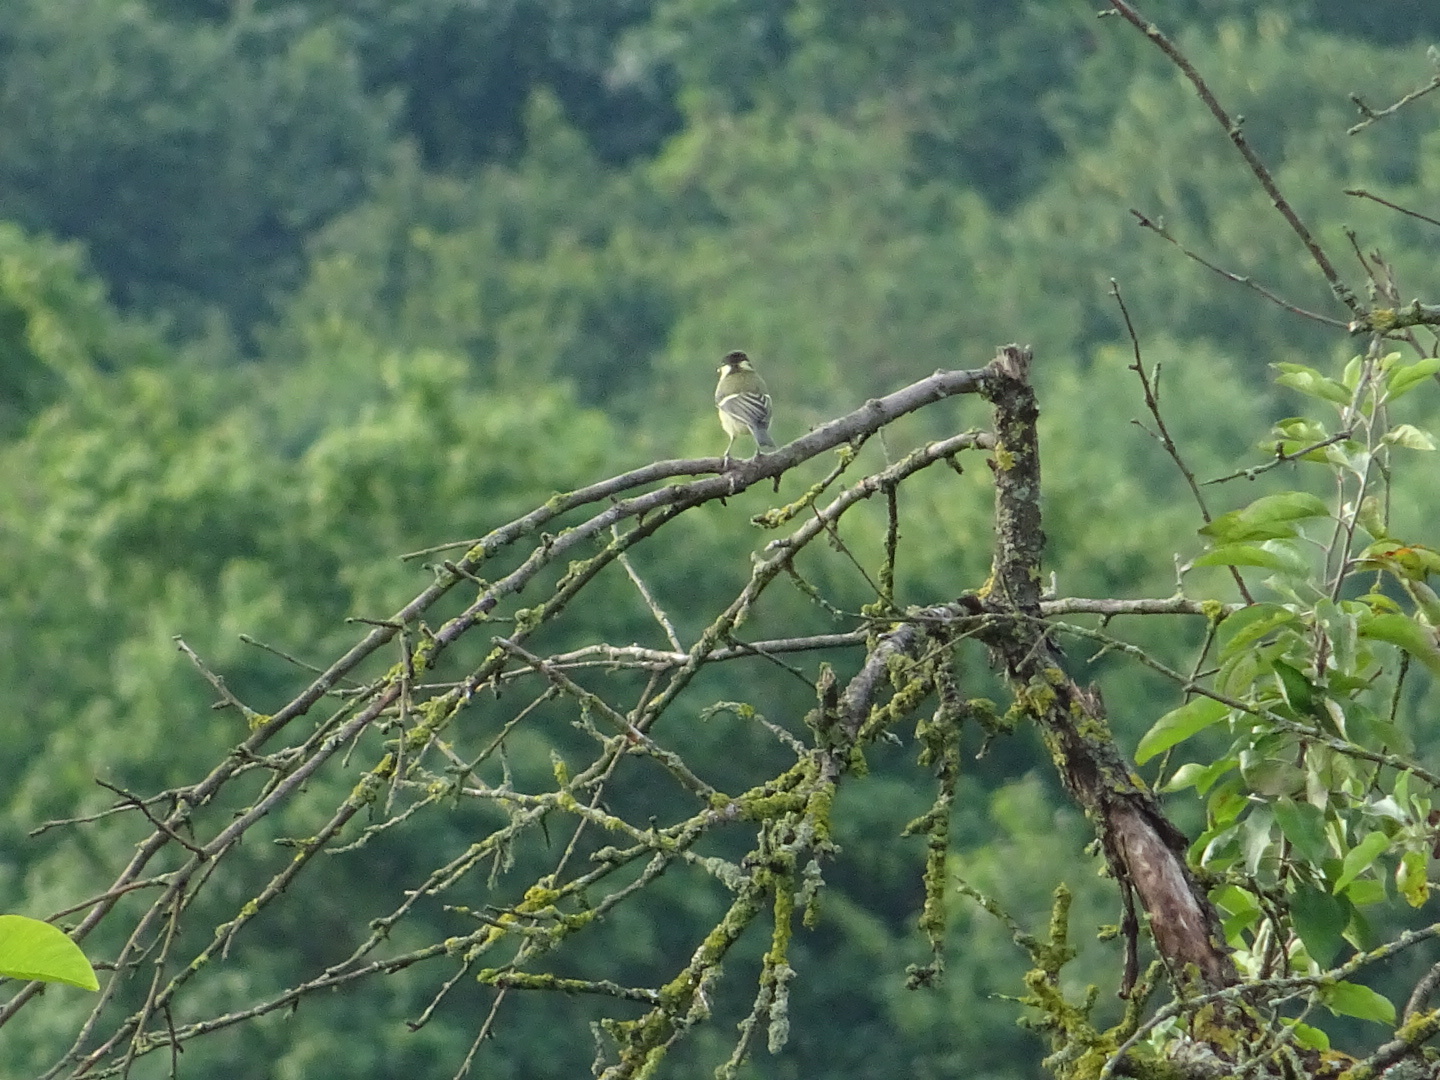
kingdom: Animalia
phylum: Chordata
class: Aves
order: Passeriformes
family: Paridae
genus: Parus
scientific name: Parus major
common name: Great tit
